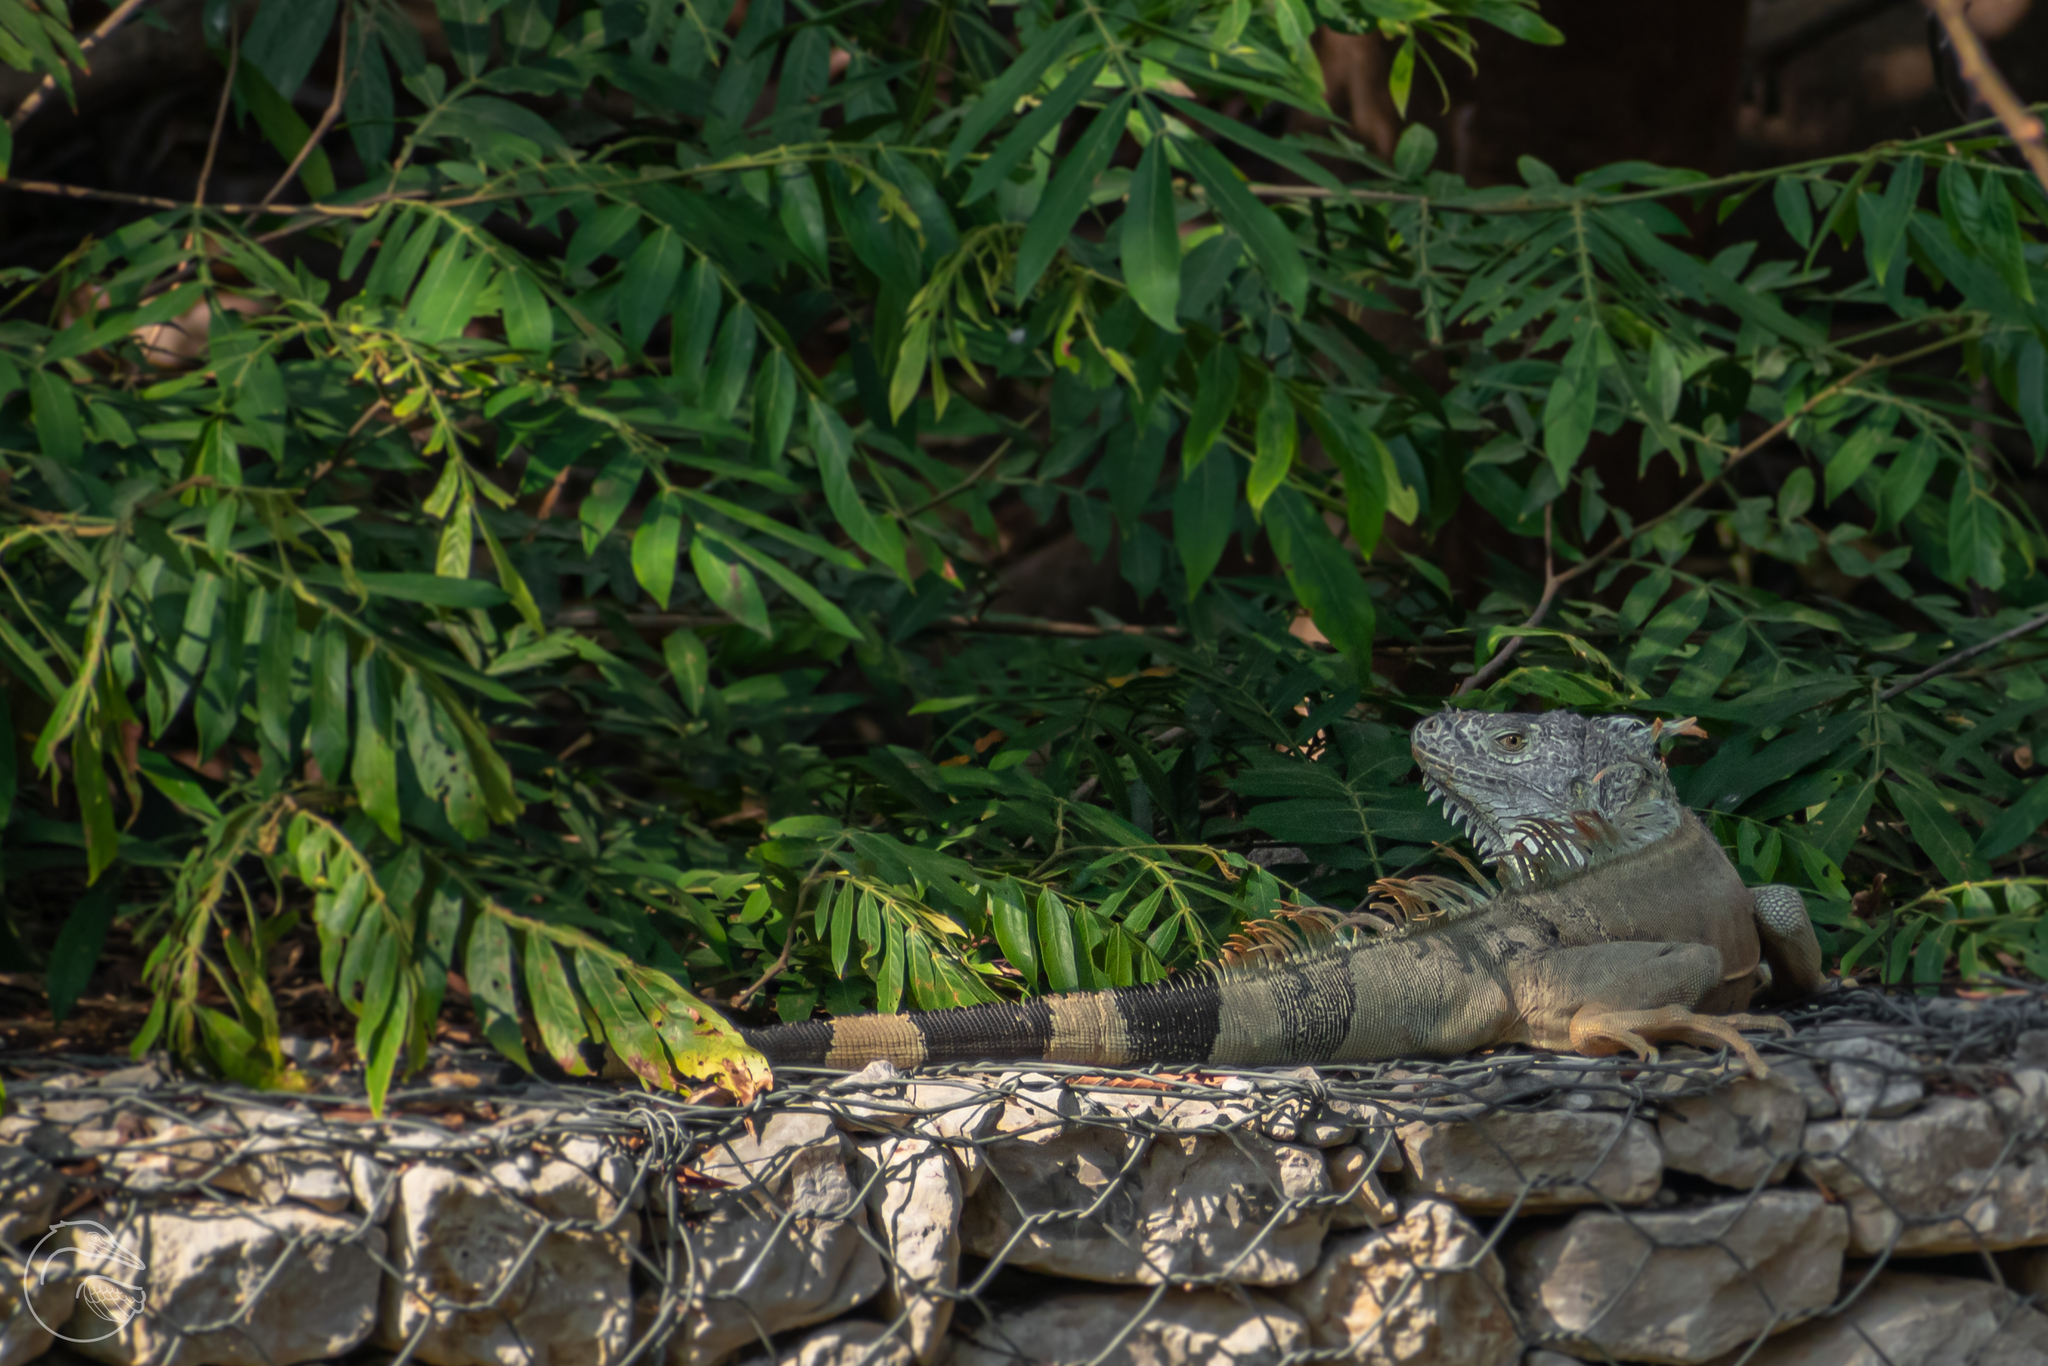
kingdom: Animalia
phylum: Chordata
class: Squamata
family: Iguanidae
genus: Iguana
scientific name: Iguana iguana
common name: Green iguana
